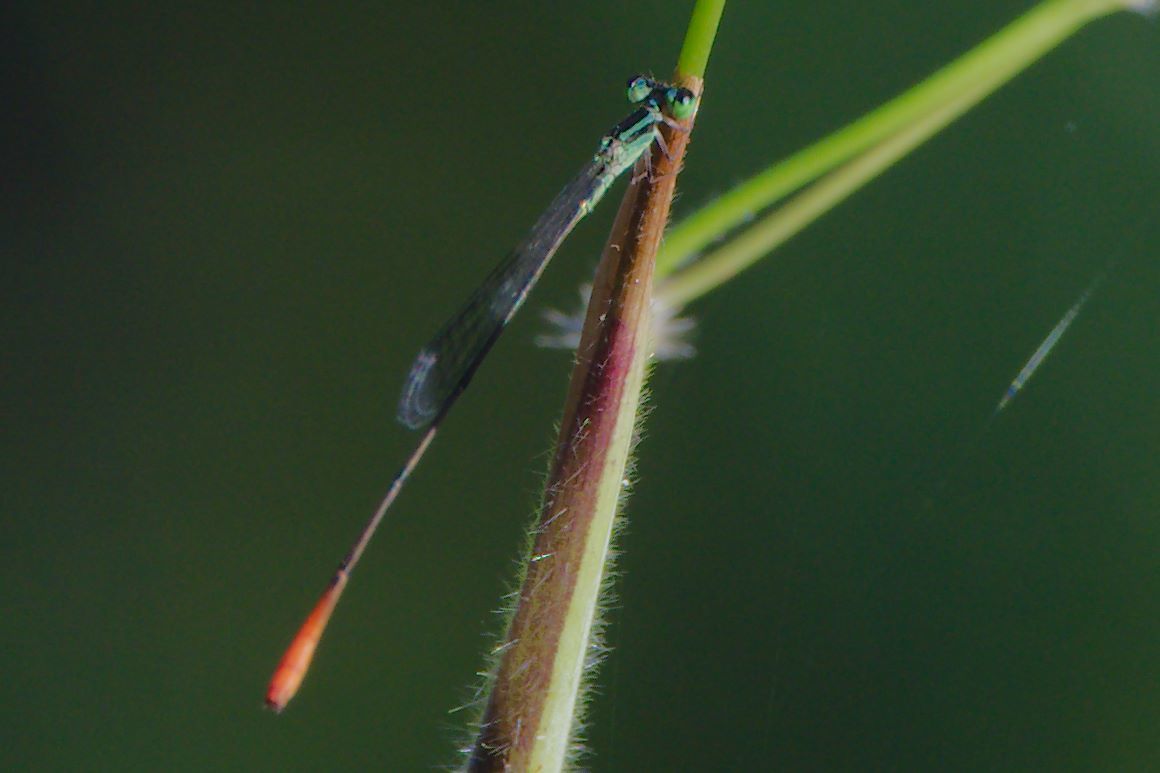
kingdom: Animalia
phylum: Arthropoda
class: Insecta
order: Odonata
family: Coenagrionidae
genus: Leptobasis
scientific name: Leptobasis lucifer
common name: Lucifer swampdamsel
